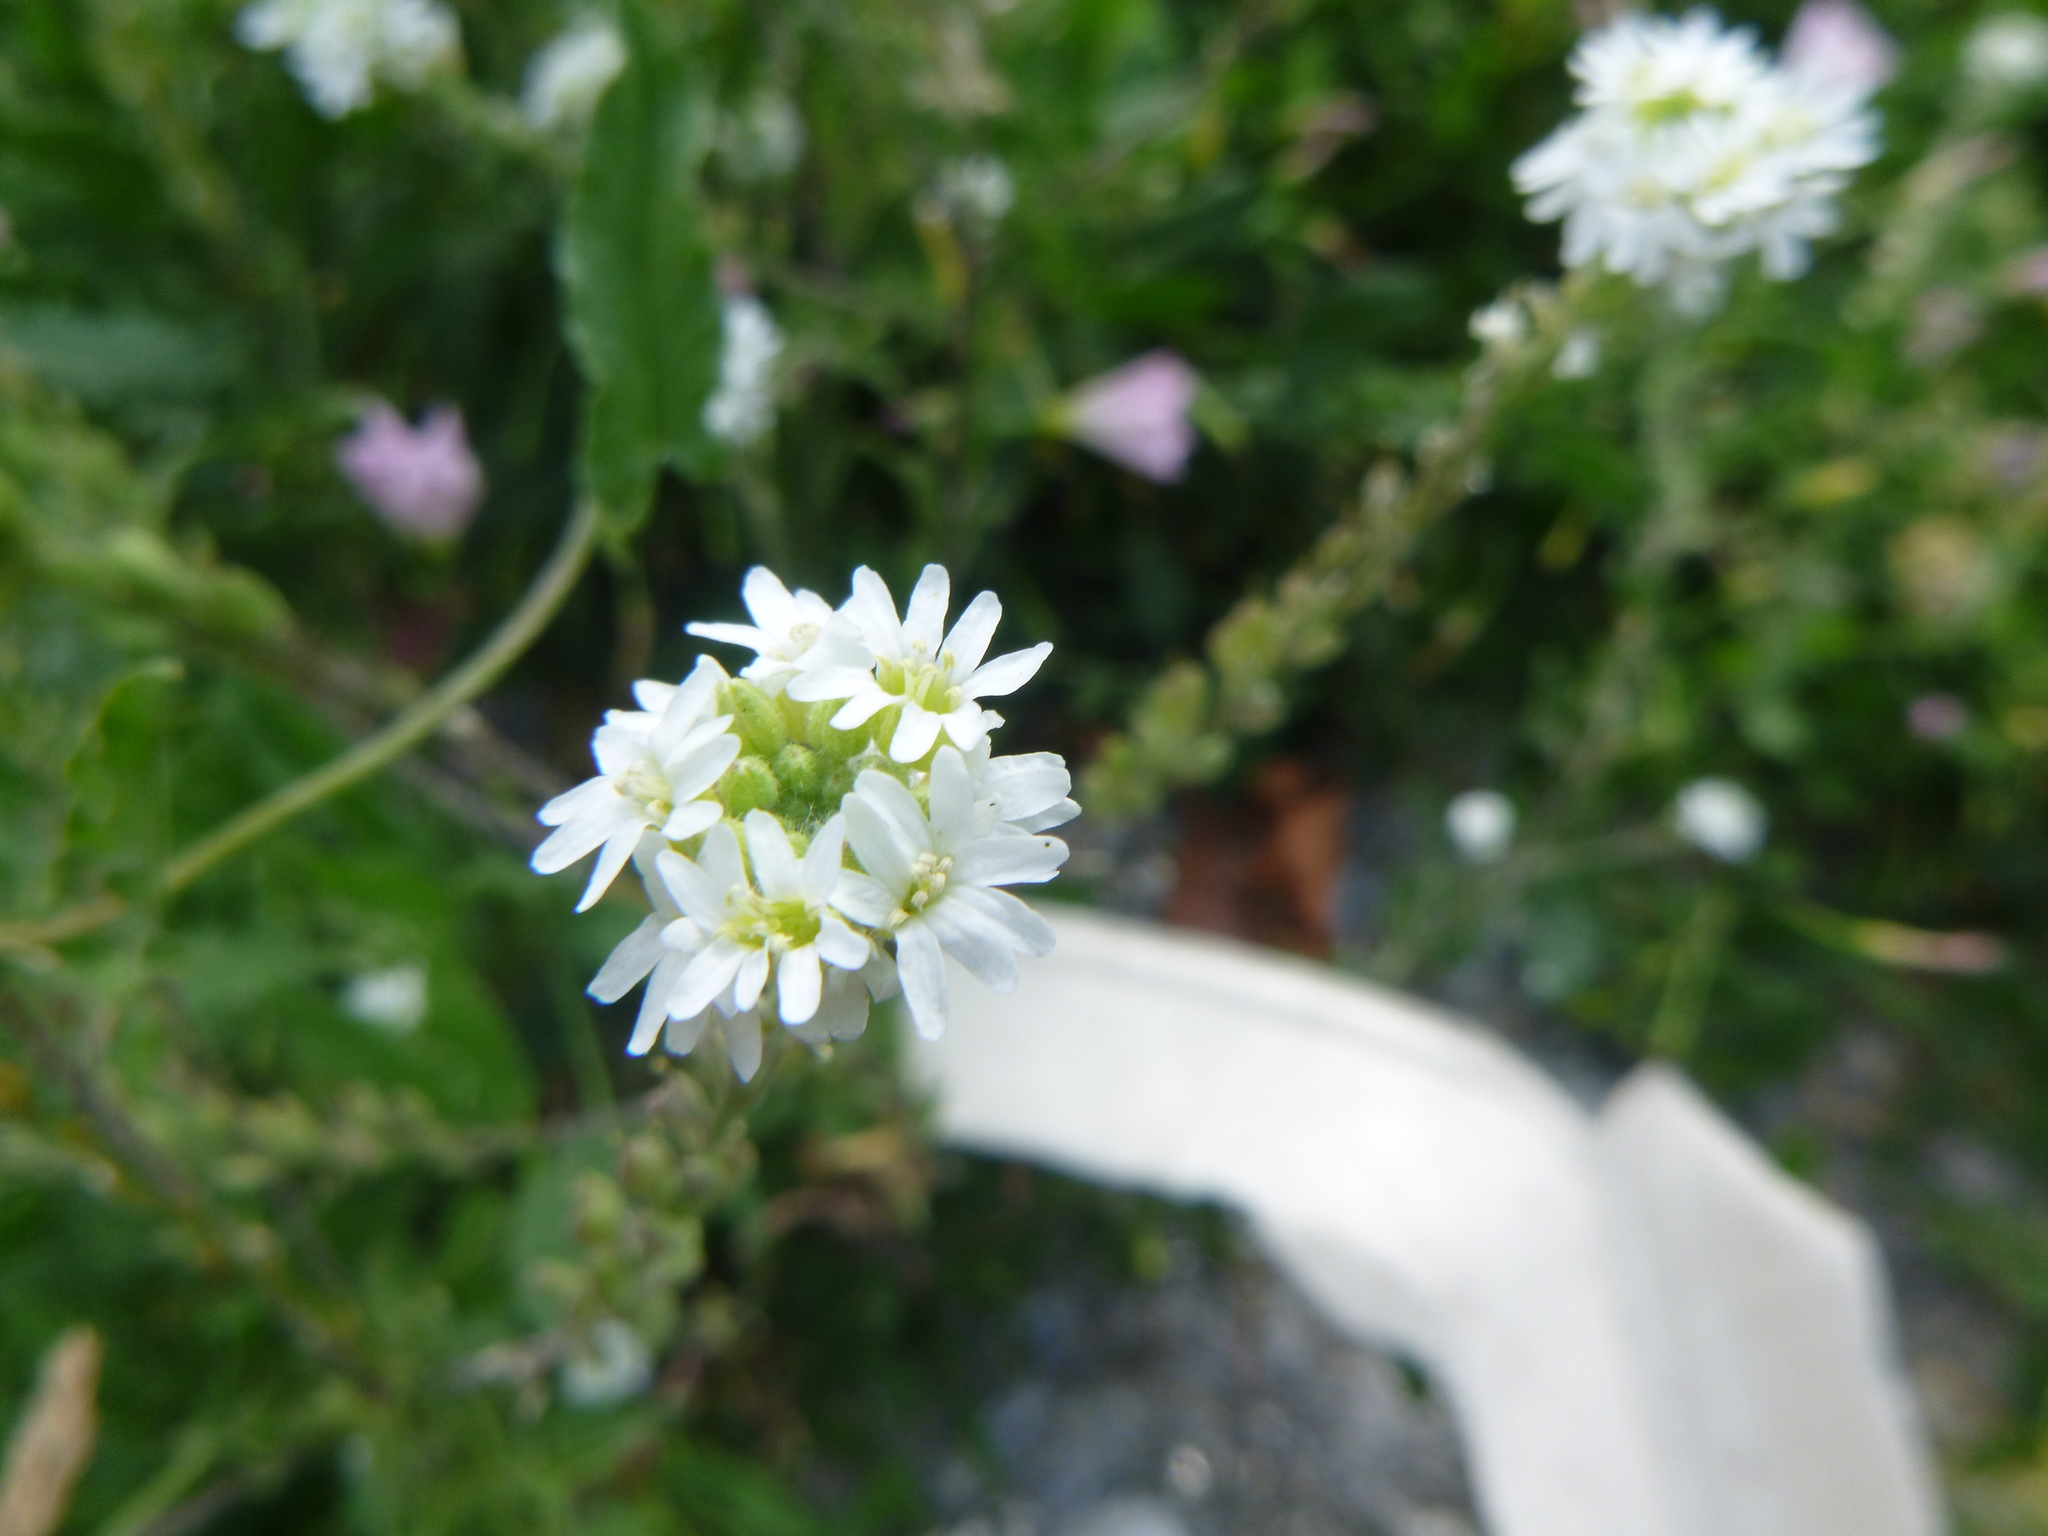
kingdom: Plantae
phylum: Tracheophyta
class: Magnoliopsida
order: Brassicales
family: Brassicaceae
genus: Berteroa
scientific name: Berteroa incana
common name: Hoary alison
